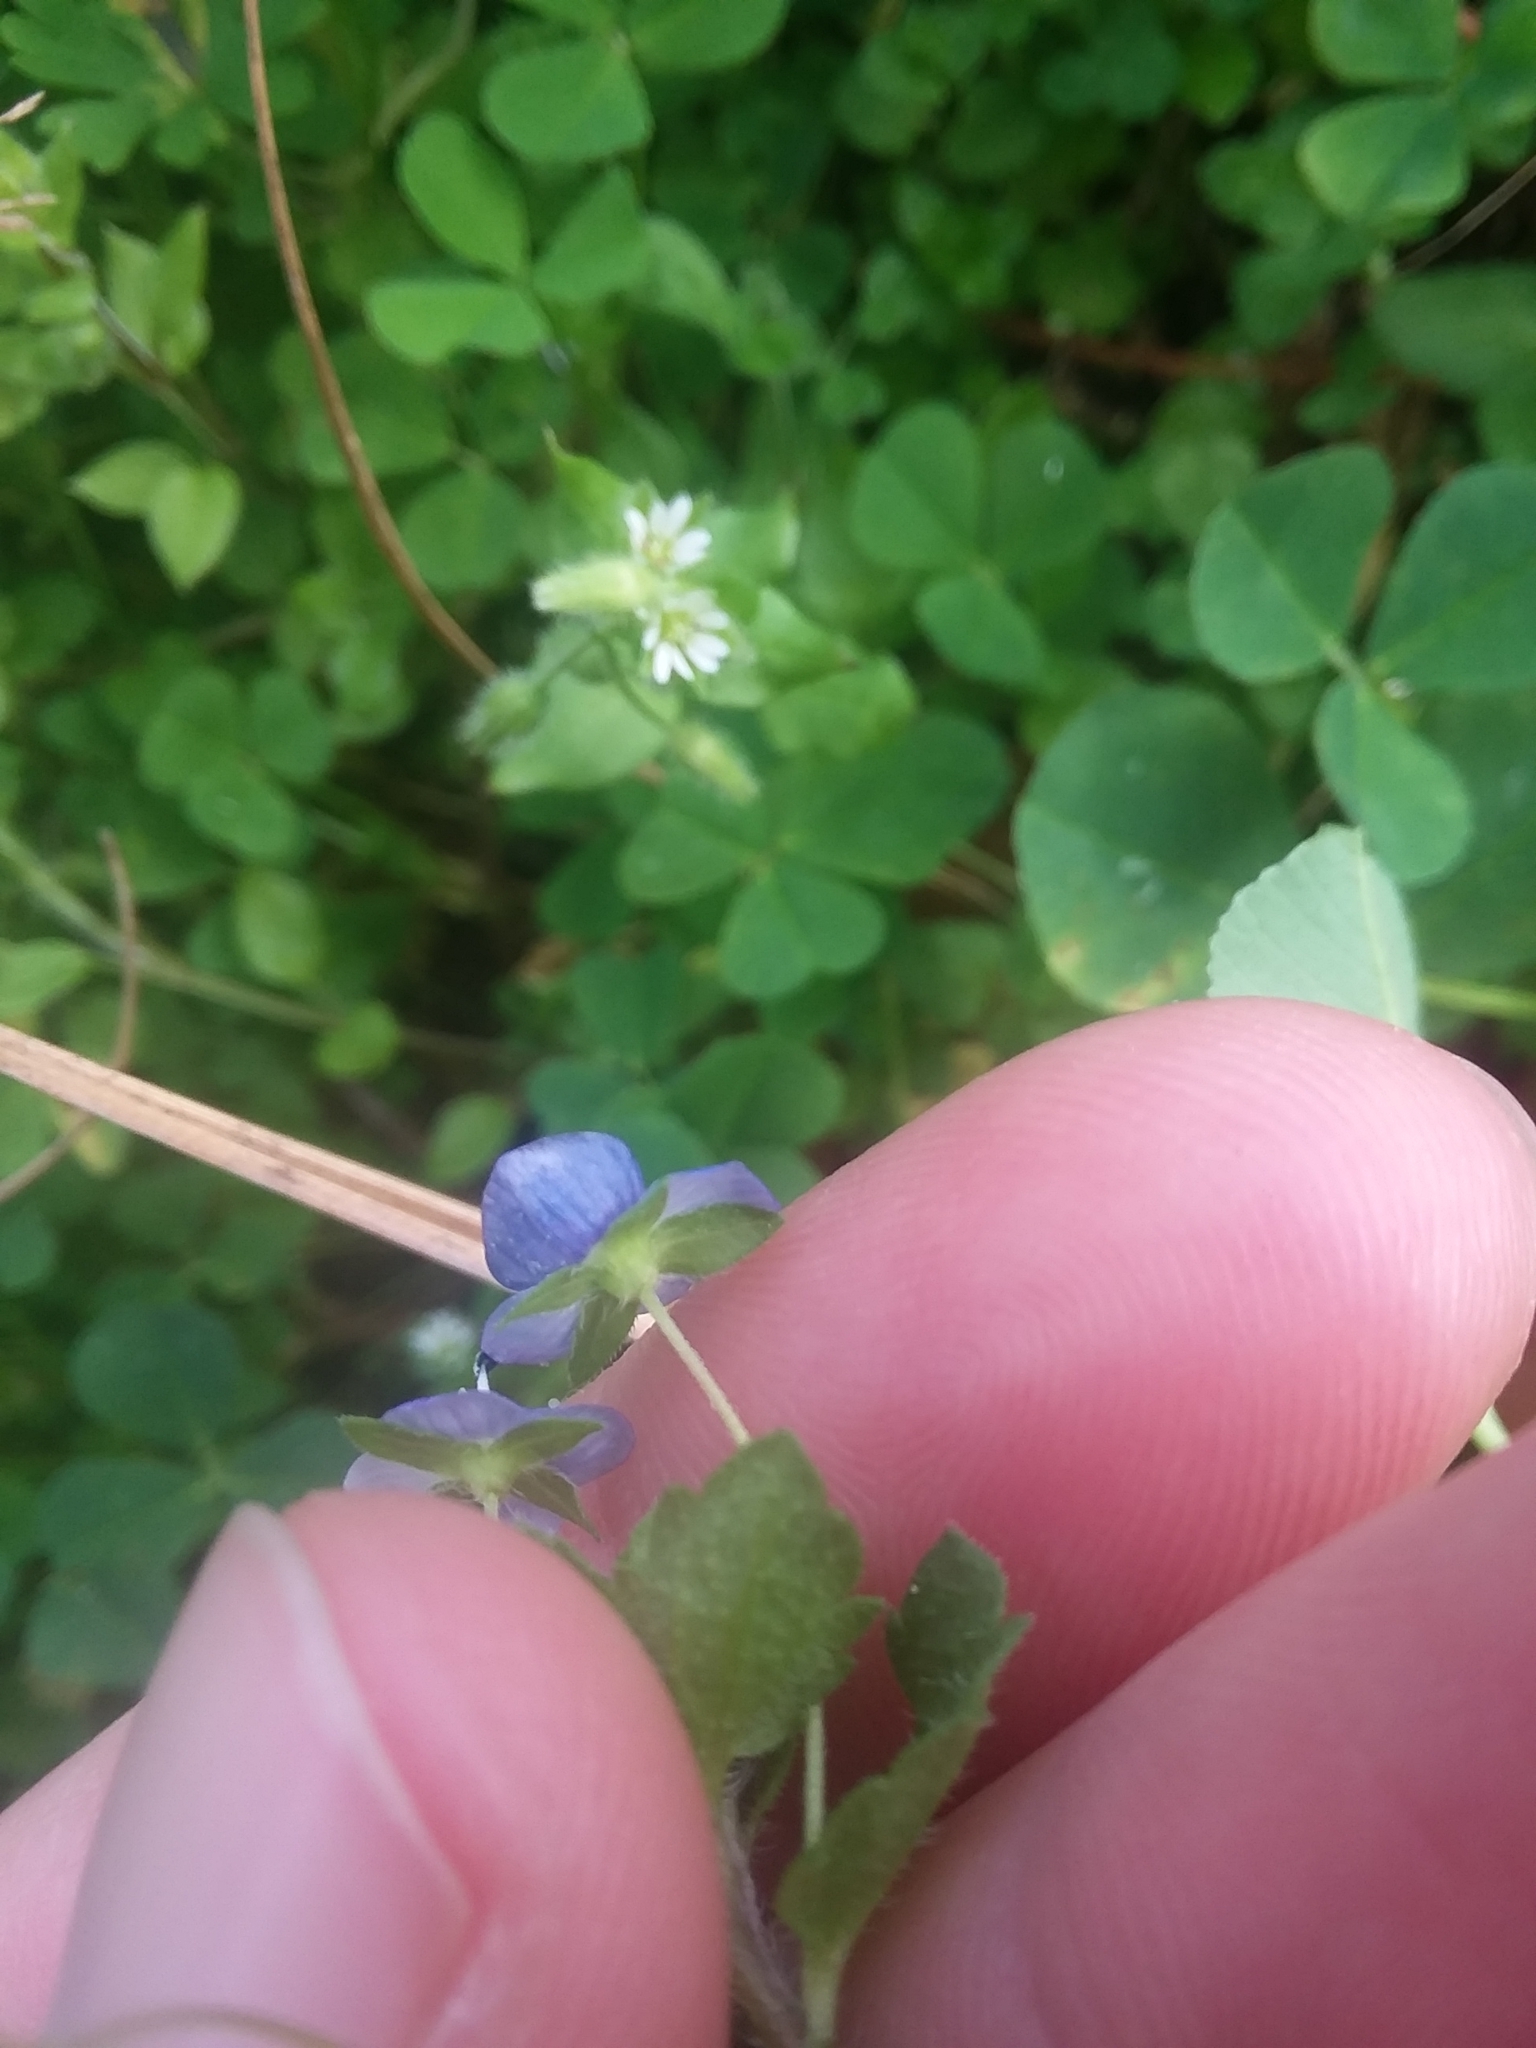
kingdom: Plantae
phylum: Tracheophyta
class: Magnoliopsida
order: Lamiales
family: Plantaginaceae
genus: Veronica
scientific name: Veronica persica
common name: Common field-speedwell
